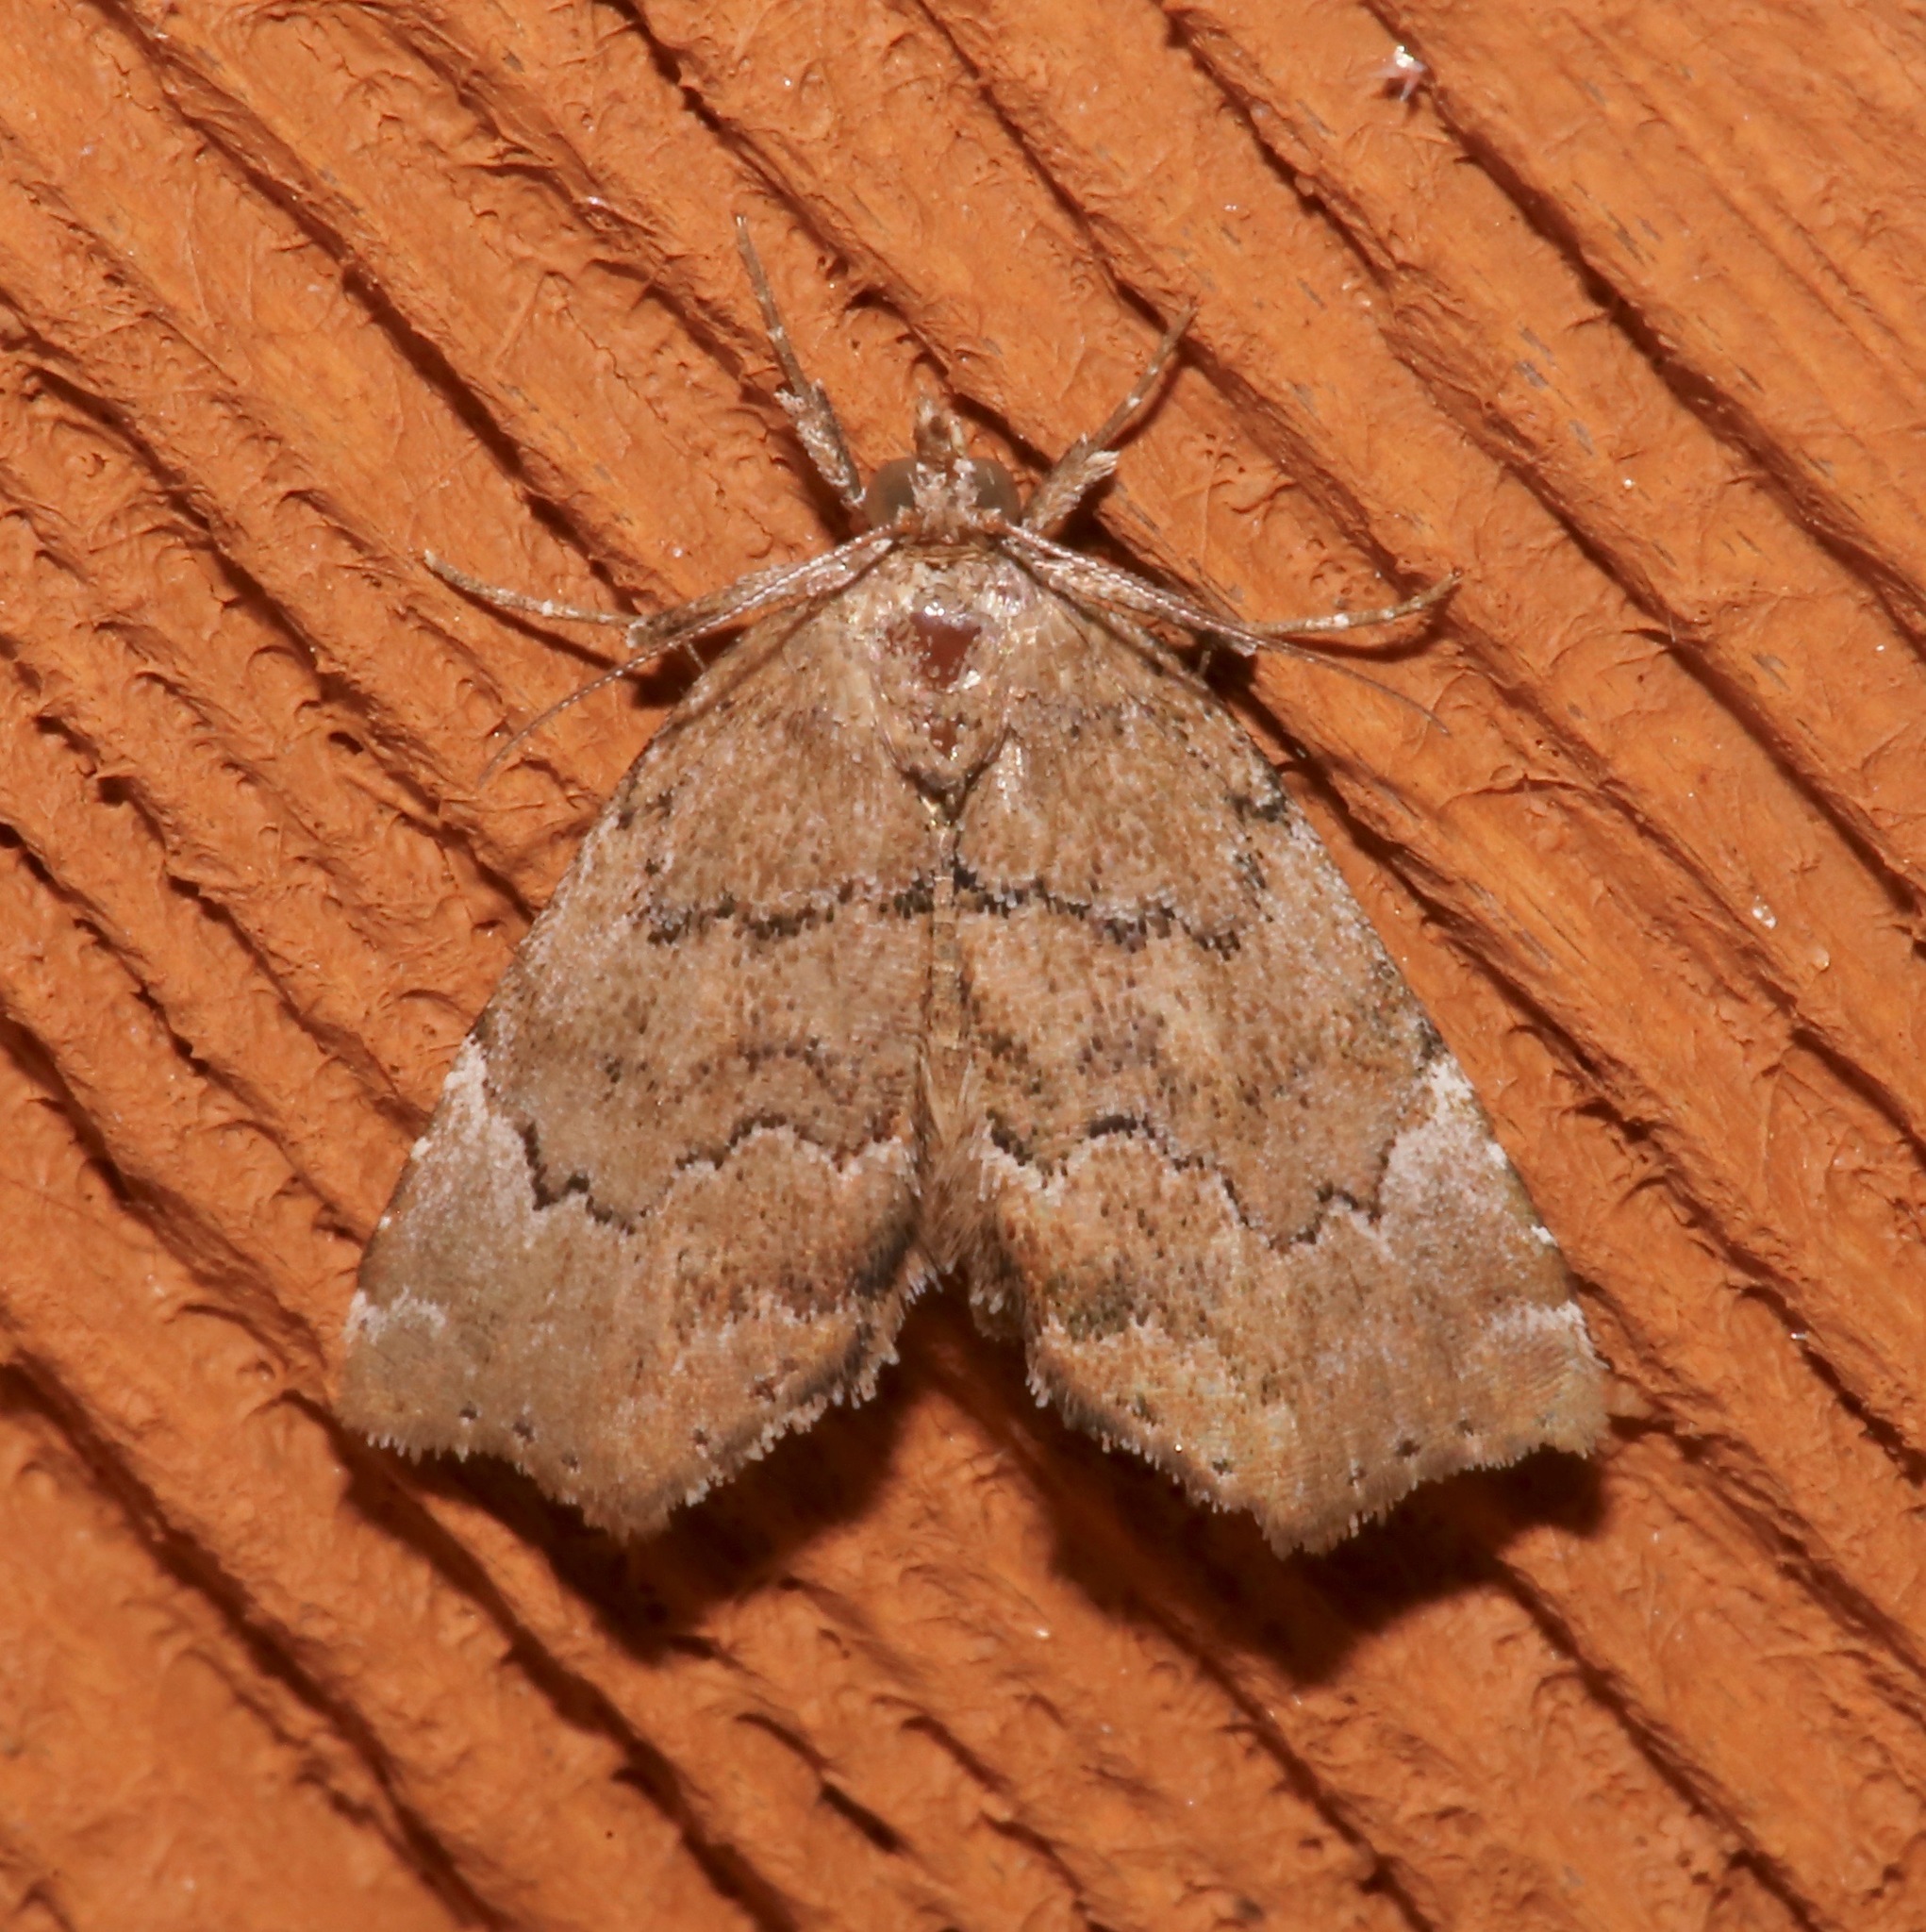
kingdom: Animalia
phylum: Arthropoda
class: Insecta
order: Lepidoptera
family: Erebidae
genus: Cutina
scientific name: Cutina aluticolor
